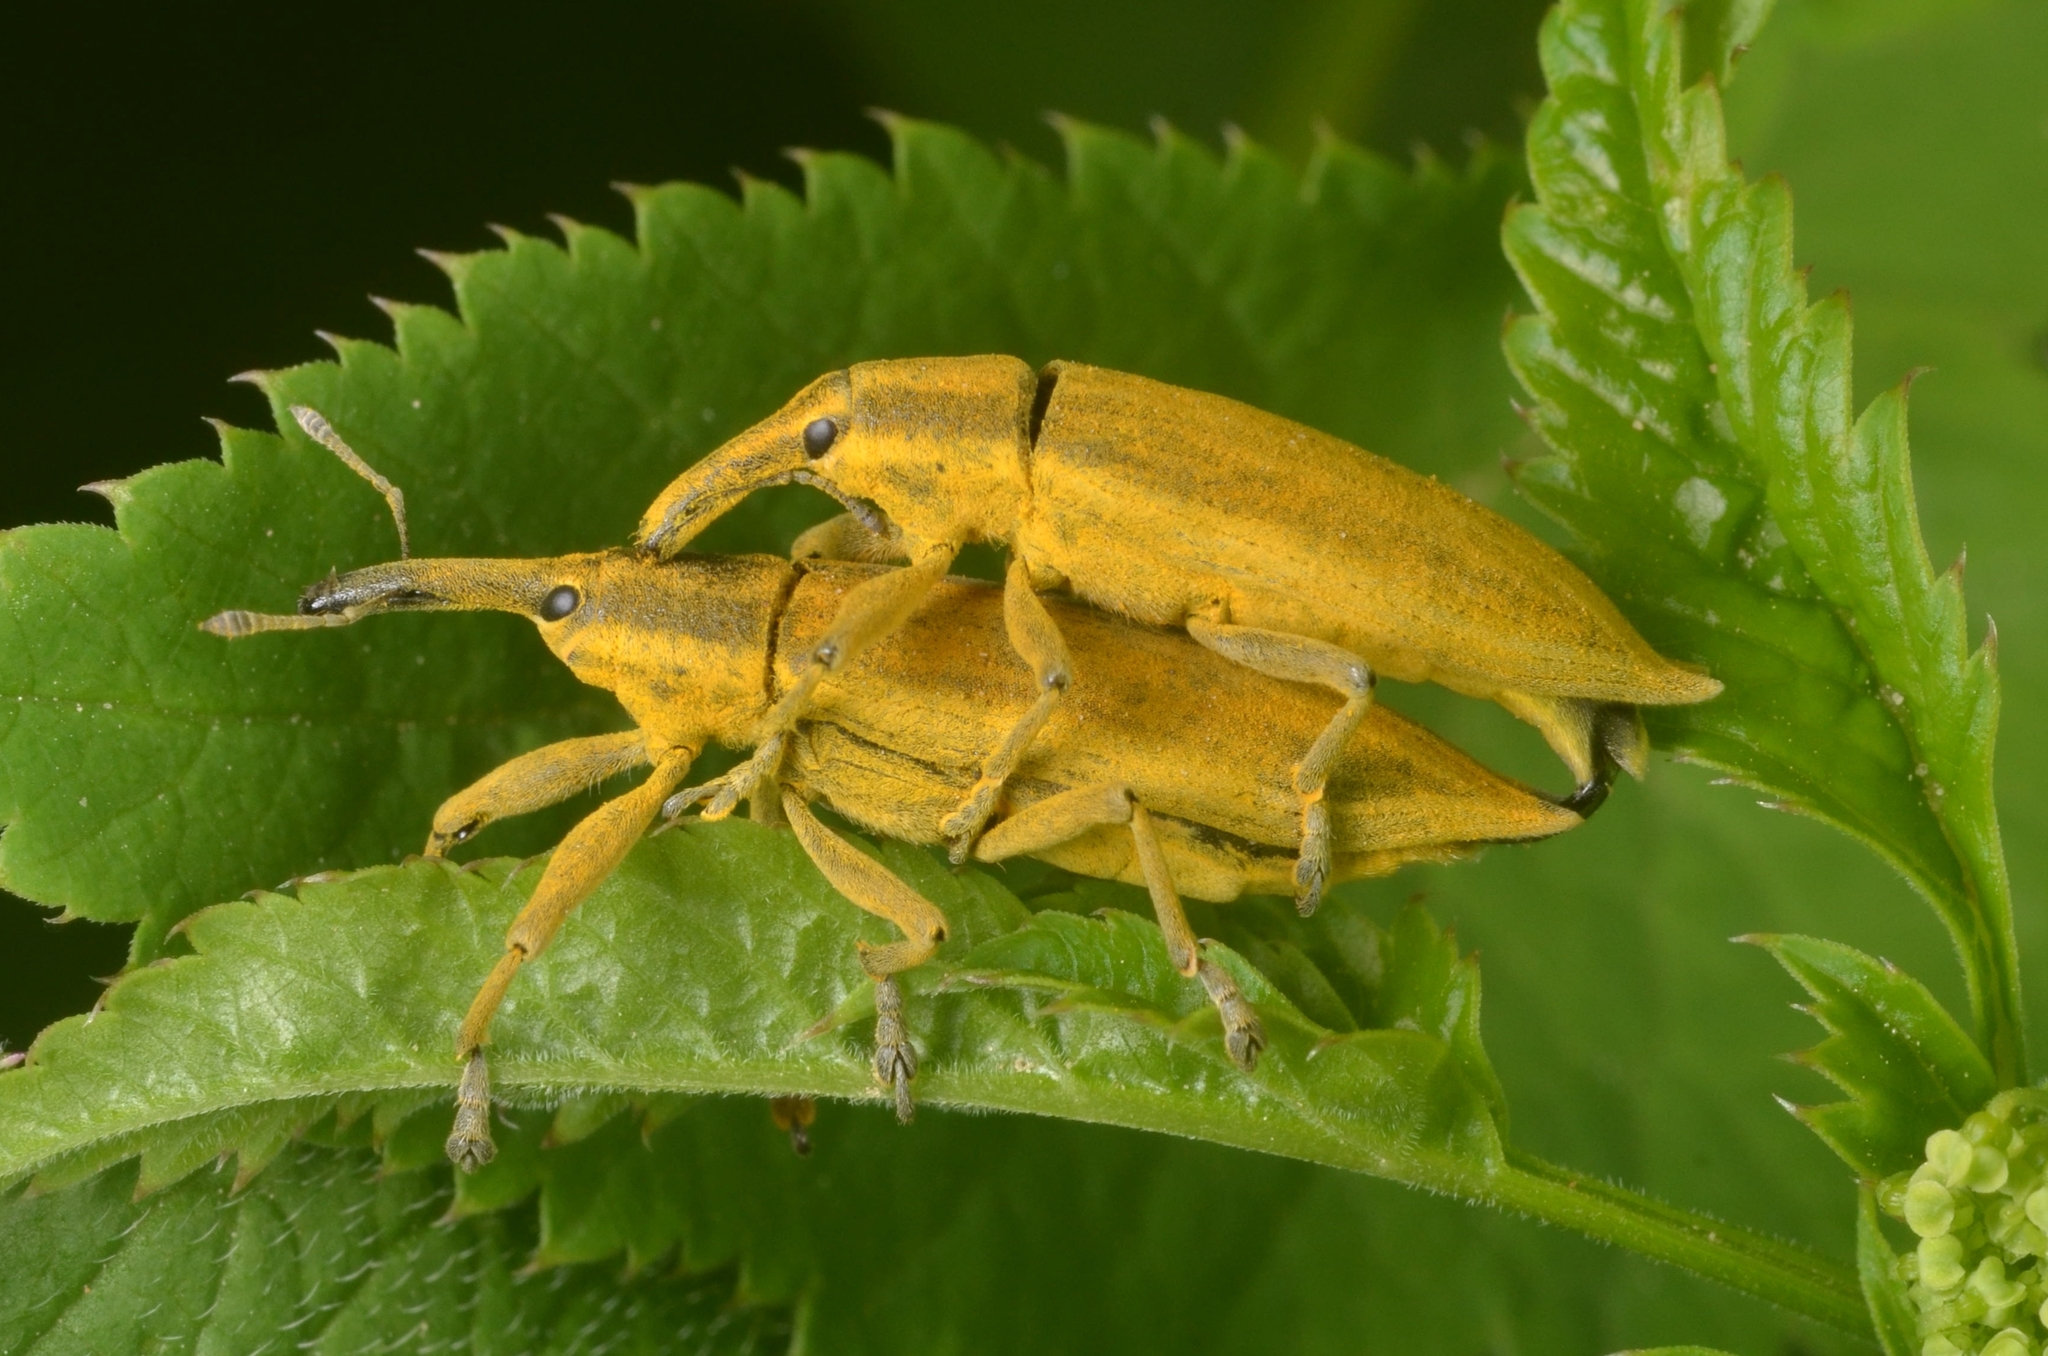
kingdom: Animalia
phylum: Arthropoda
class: Insecta
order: Coleoptera
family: Curculionidae
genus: Lixus
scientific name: Lixus iridis
